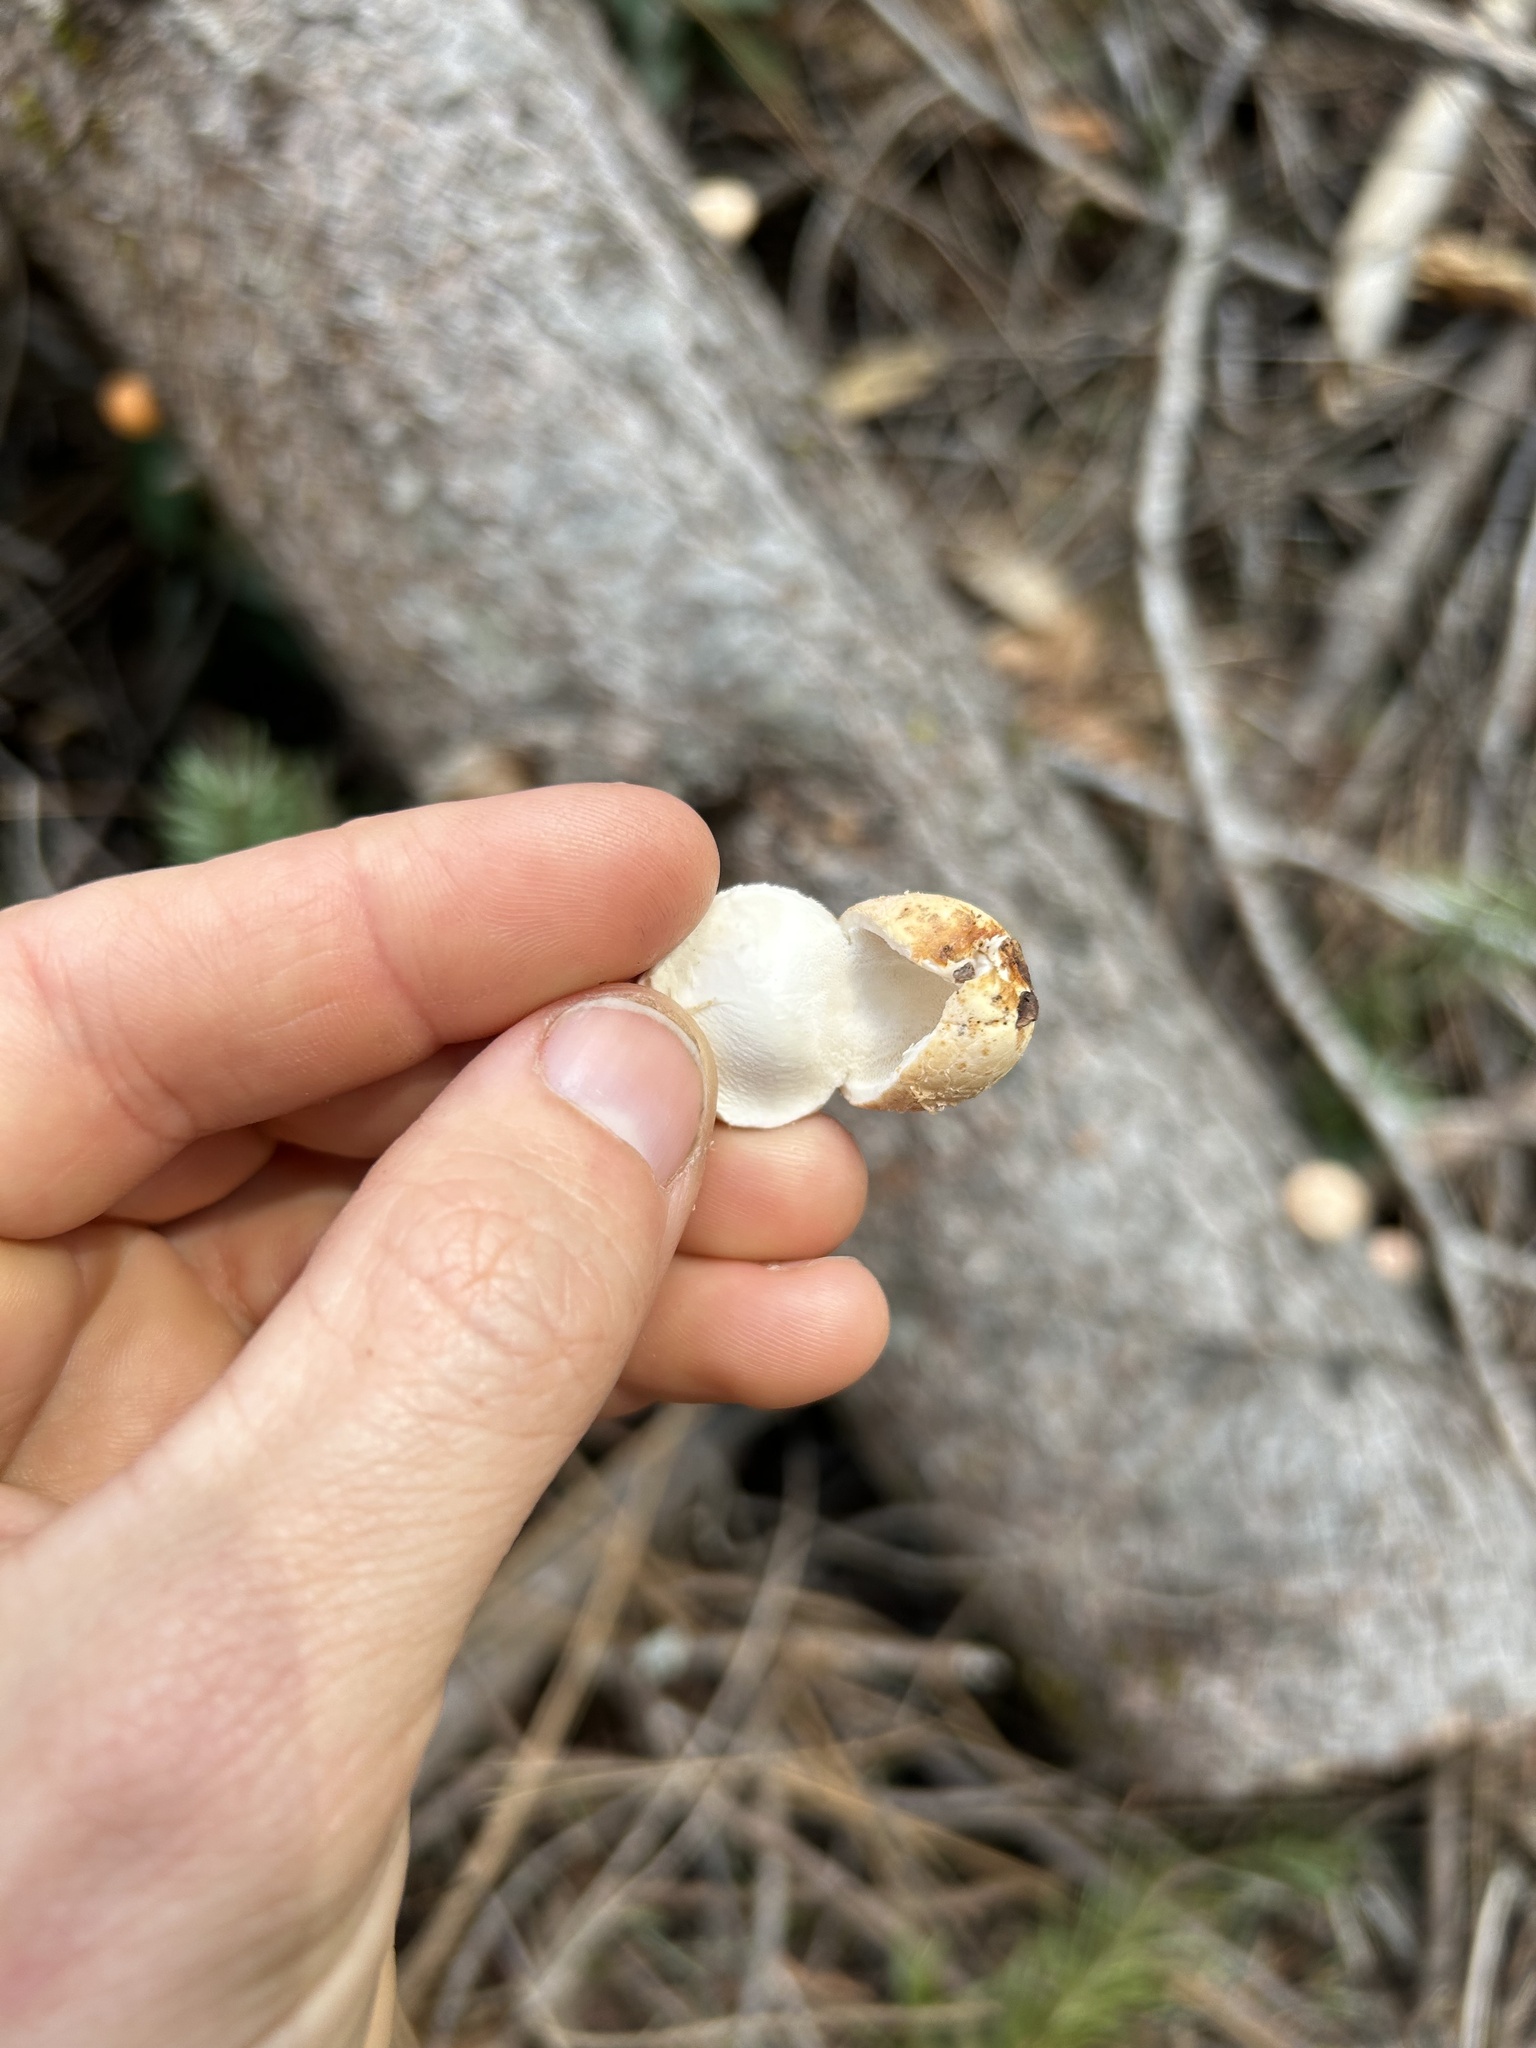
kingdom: Fungi
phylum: Basidiomycota
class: Agaricomycetes
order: Polyporales
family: Polyporaceae
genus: Cryptoporus
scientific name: Cryptoporus volvatus
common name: Veiled polypore
